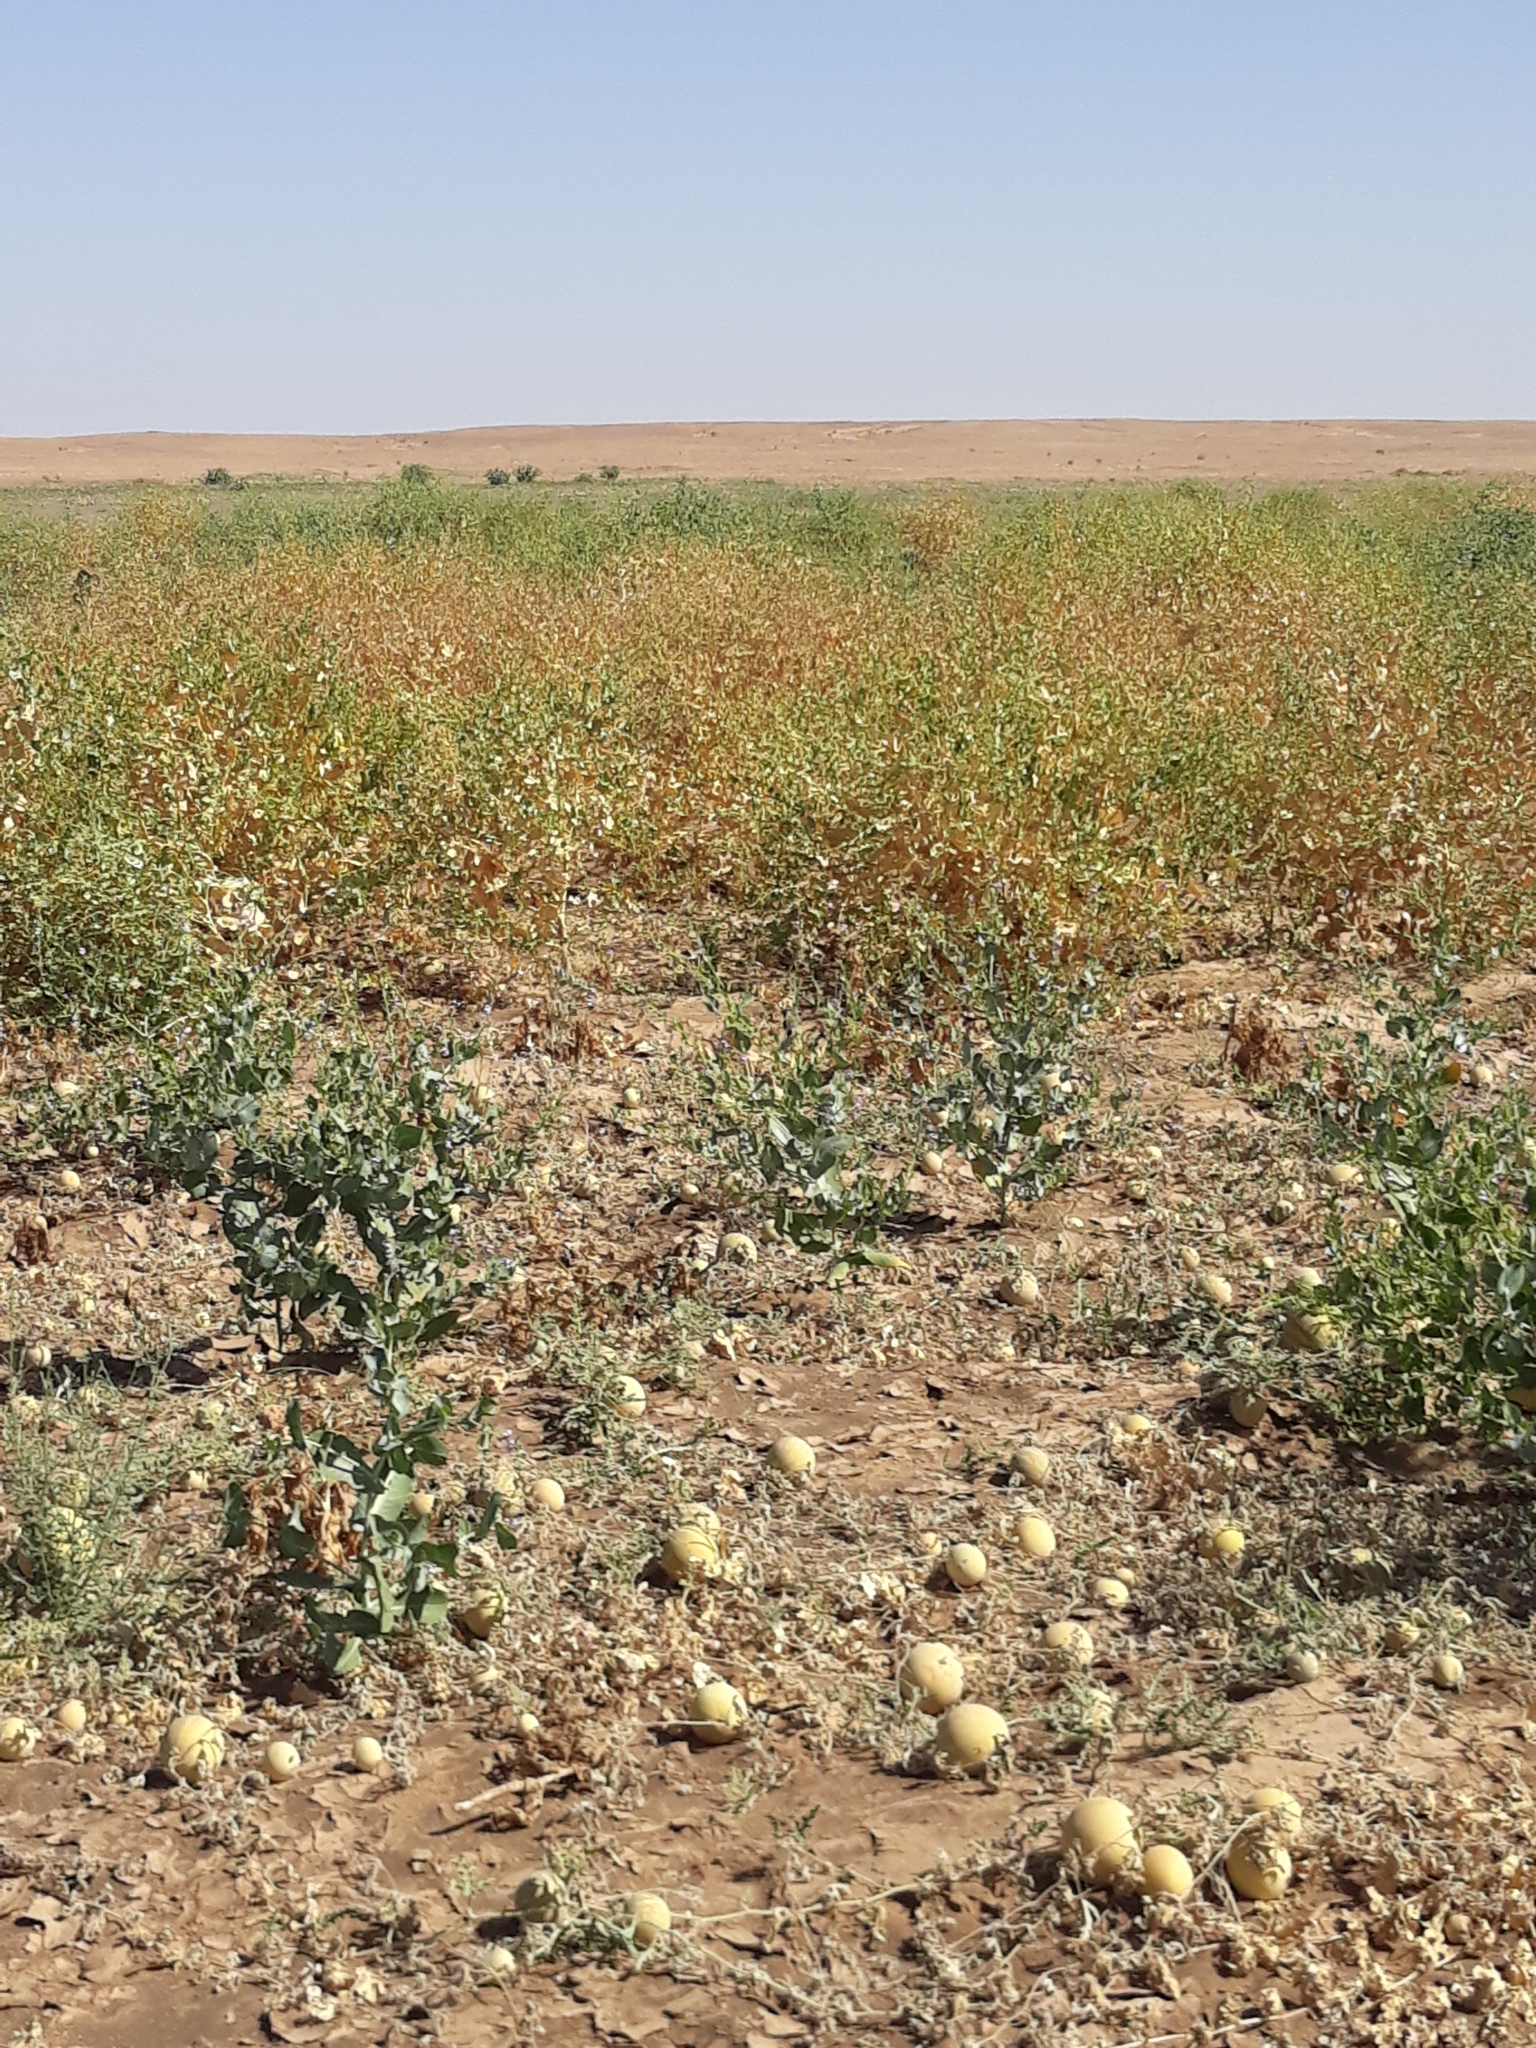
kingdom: Plantae
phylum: Tracheophyta
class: Magnoliopsida
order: Cucurbitales
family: Cucurbitaceae
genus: Citrullus
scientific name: Citrullus colocynthis
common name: Colocynth
